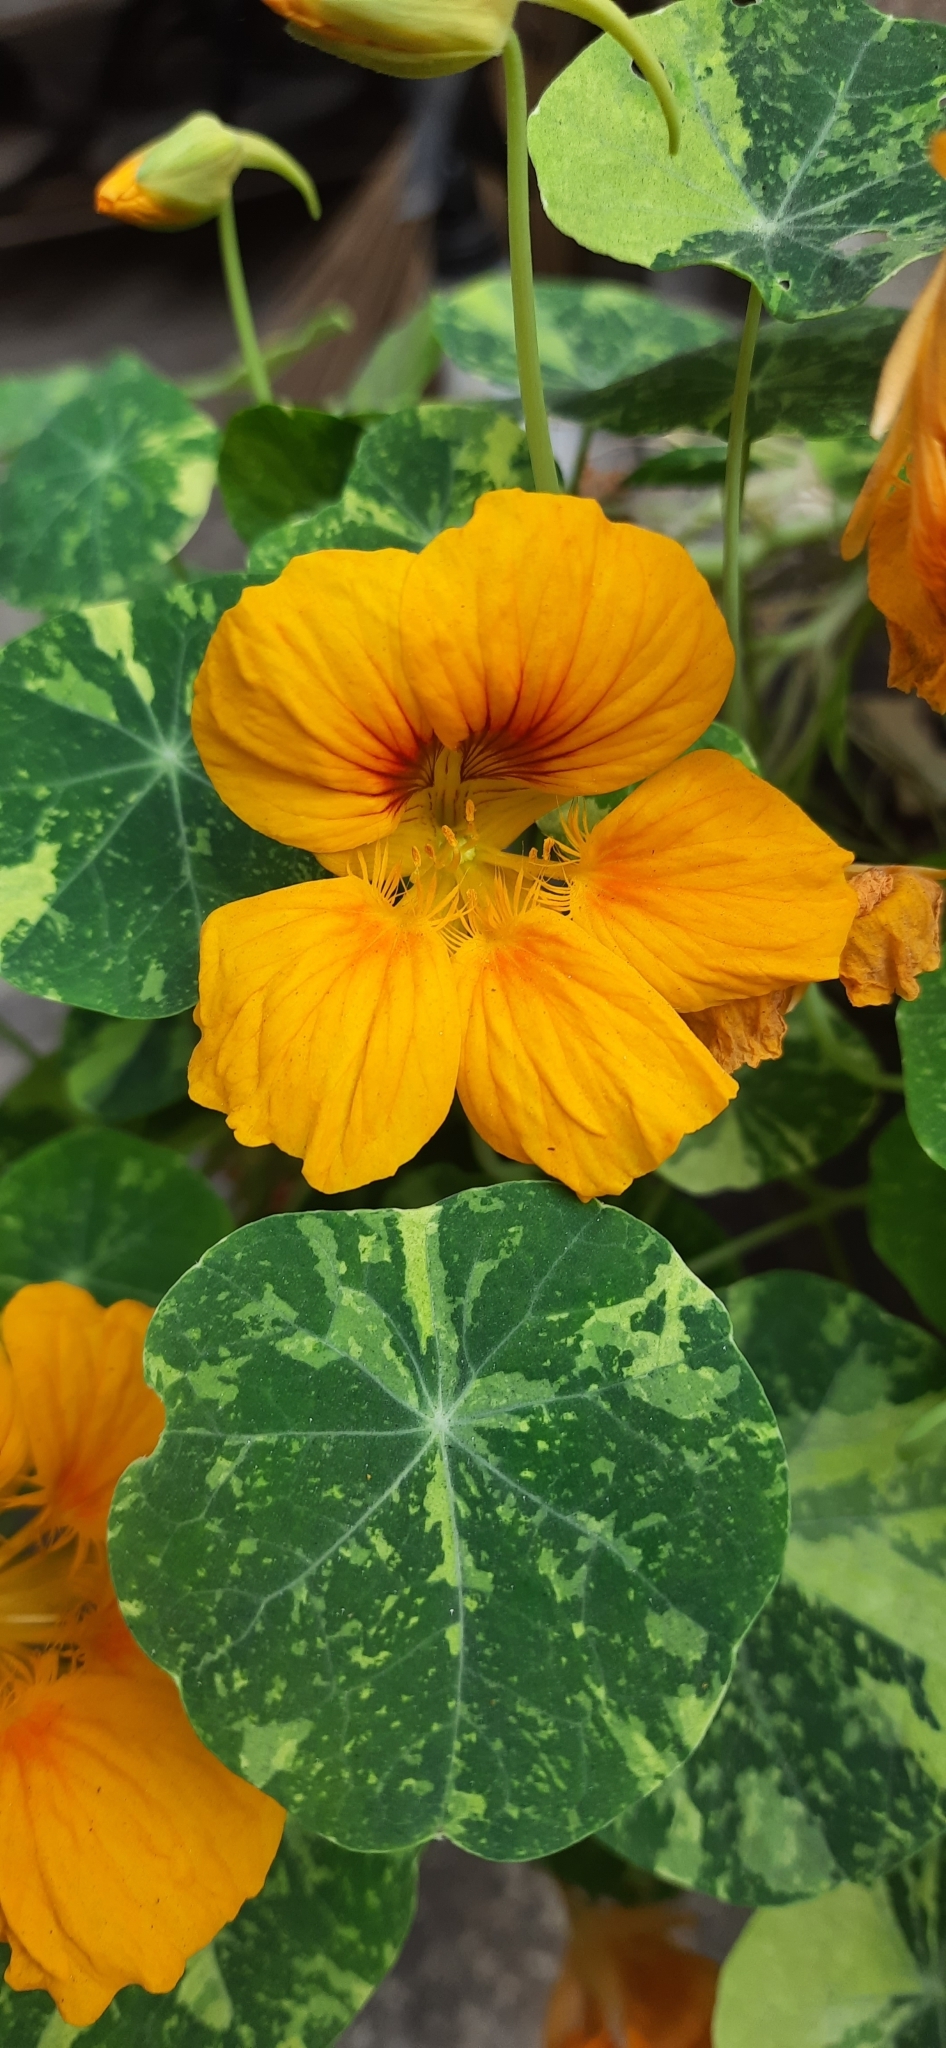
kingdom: Plantae
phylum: Tracheophyta
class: Magnoliopsida
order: Brassicales
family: Tropaeolaceae
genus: Tropaeolum
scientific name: Tropaeolum majus
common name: Nasturtium
